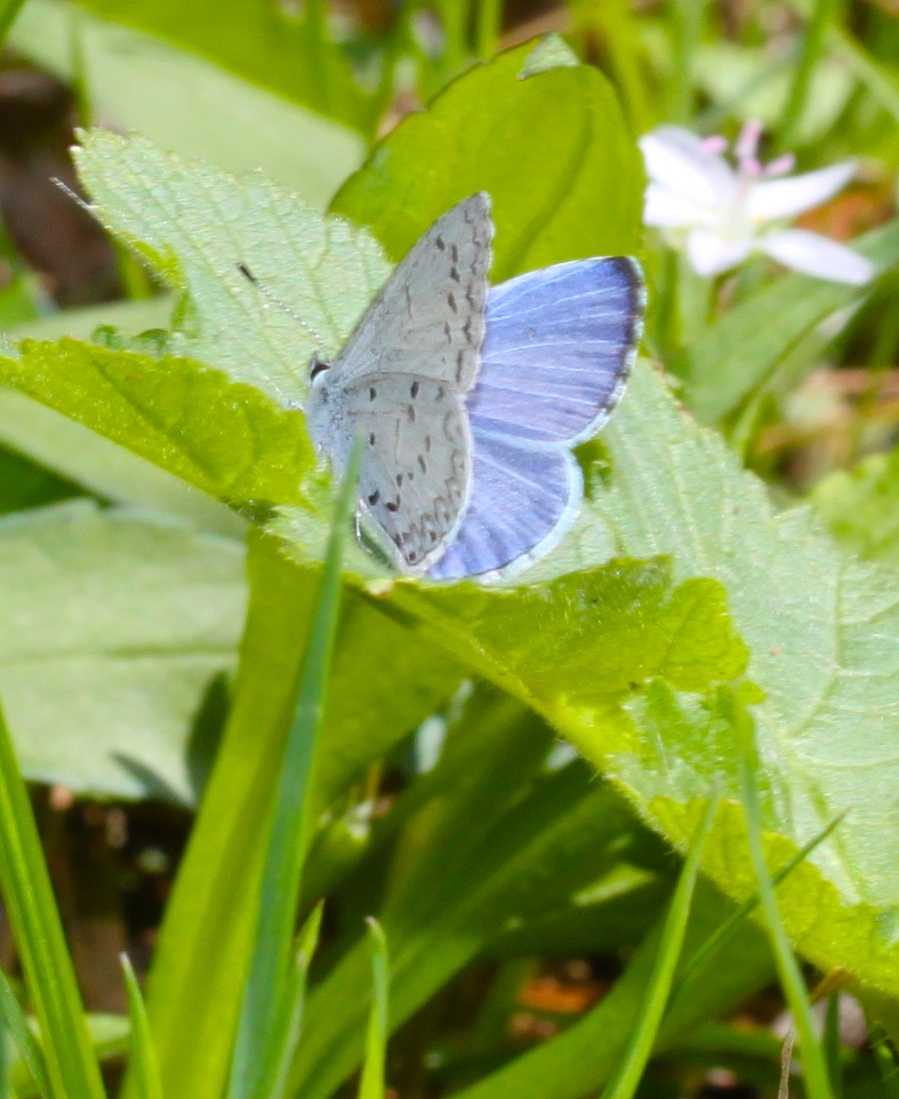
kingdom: Animalia
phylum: Arthropoda
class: Insecta
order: Lepidoptera
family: Lycaenidae
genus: Celastrina
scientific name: Celastrina ladon
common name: Spring azure
